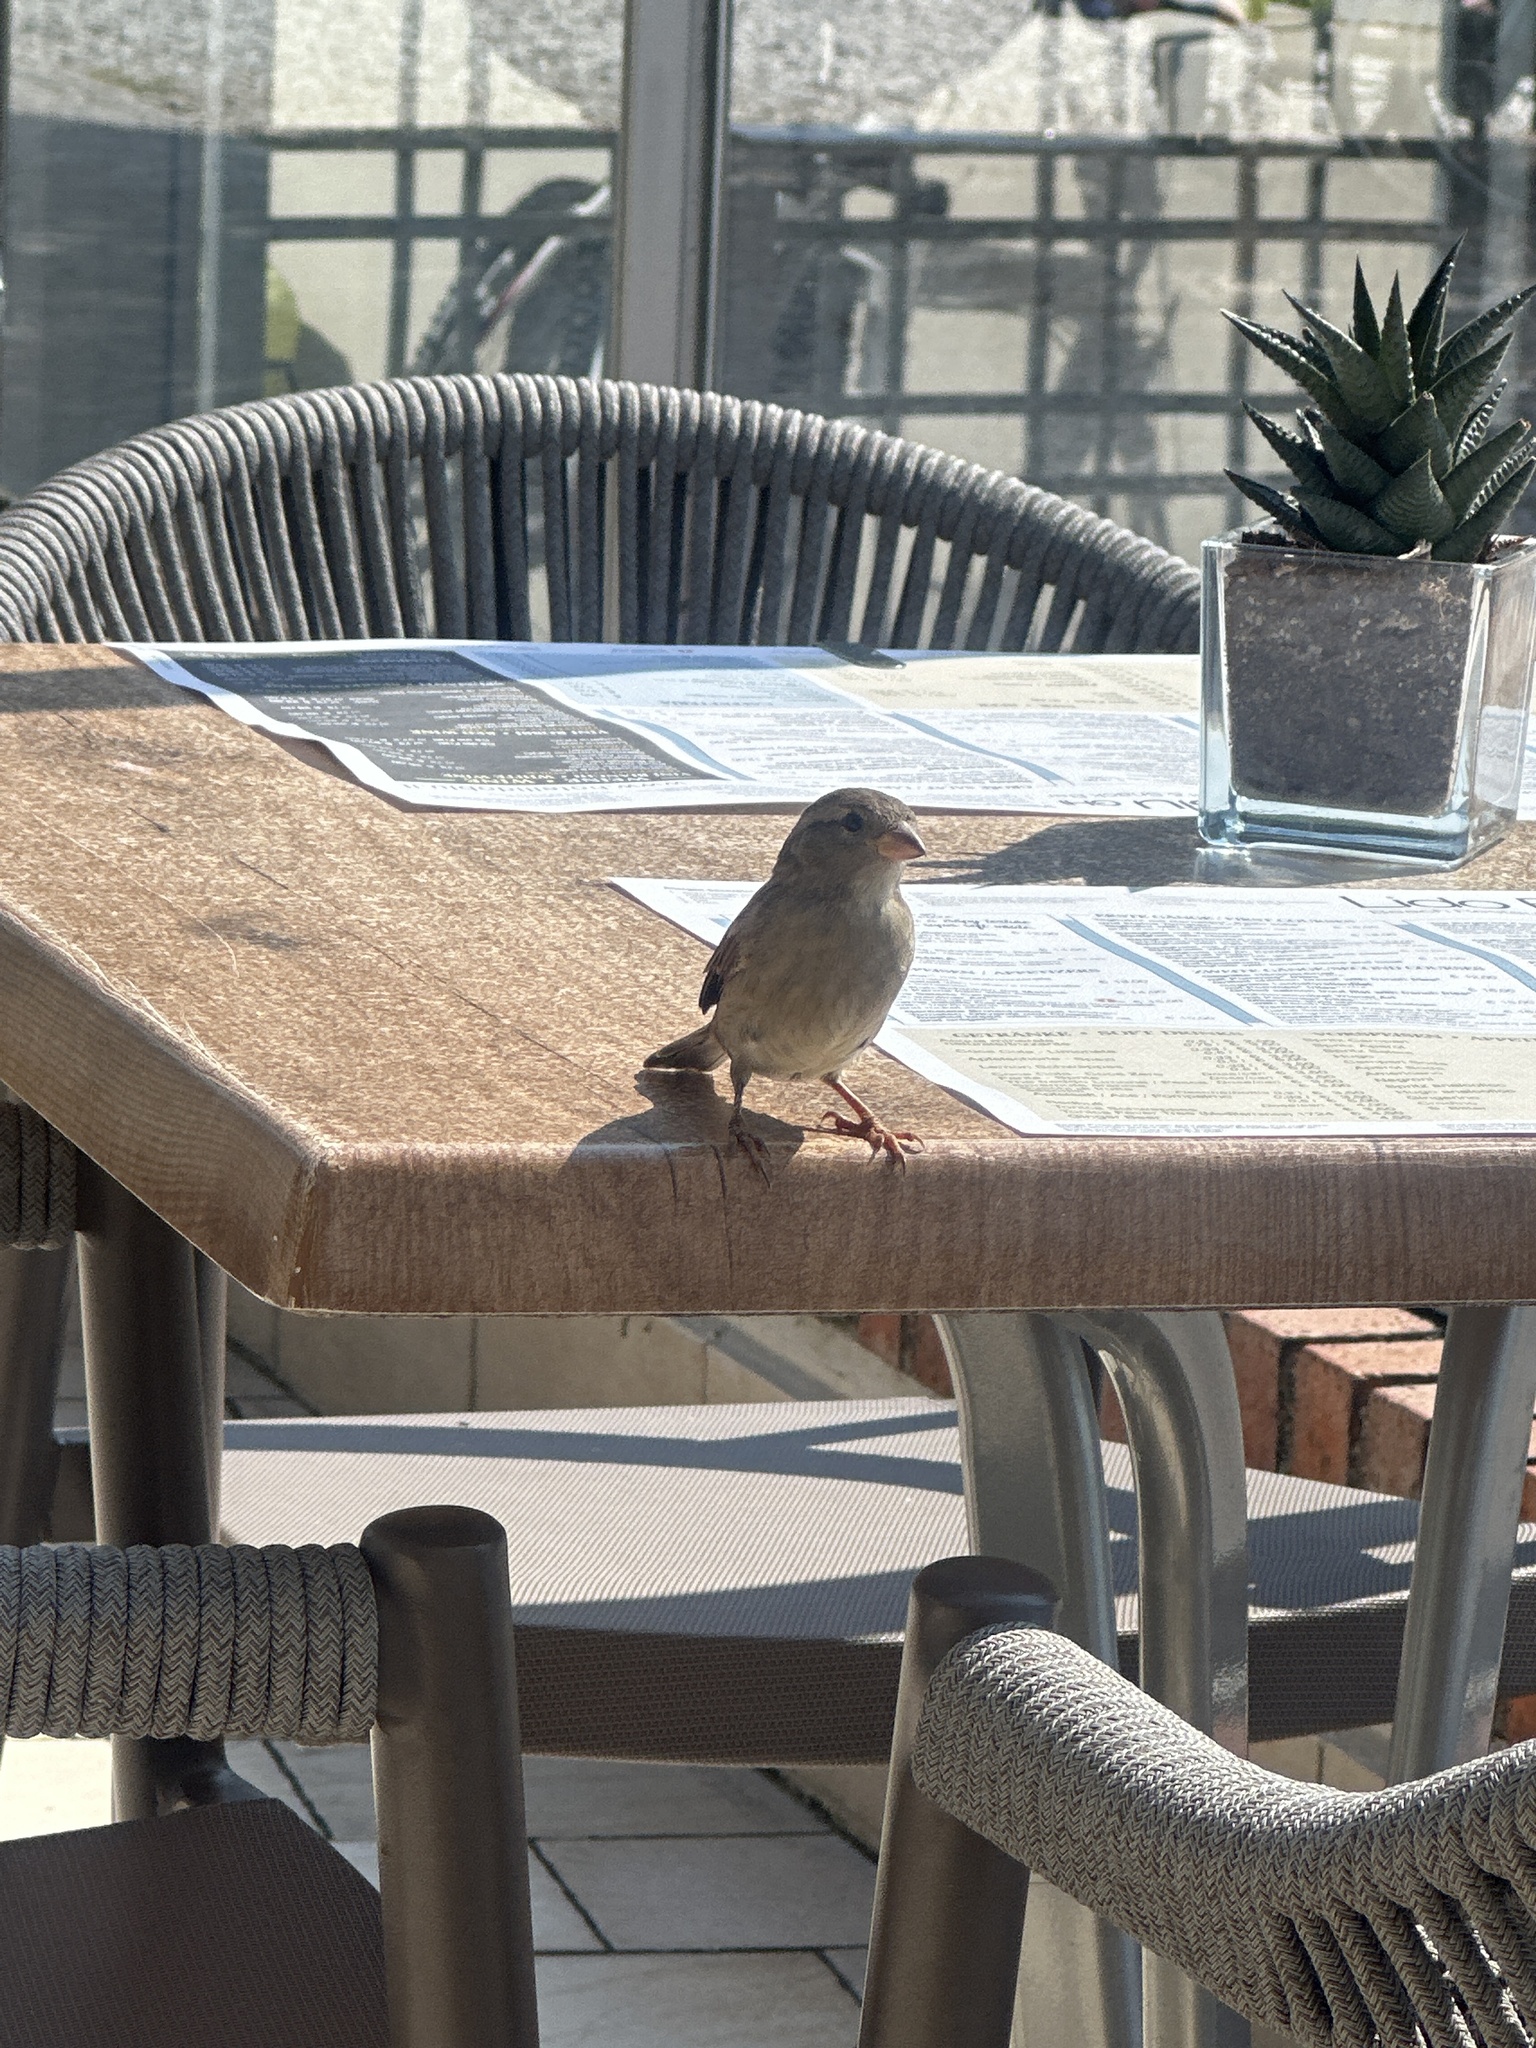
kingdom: Animalia
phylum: Chordata
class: Aves
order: Passeriformes
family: Passeridae
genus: Passer
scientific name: Passer italiae
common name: Italian sparrow
